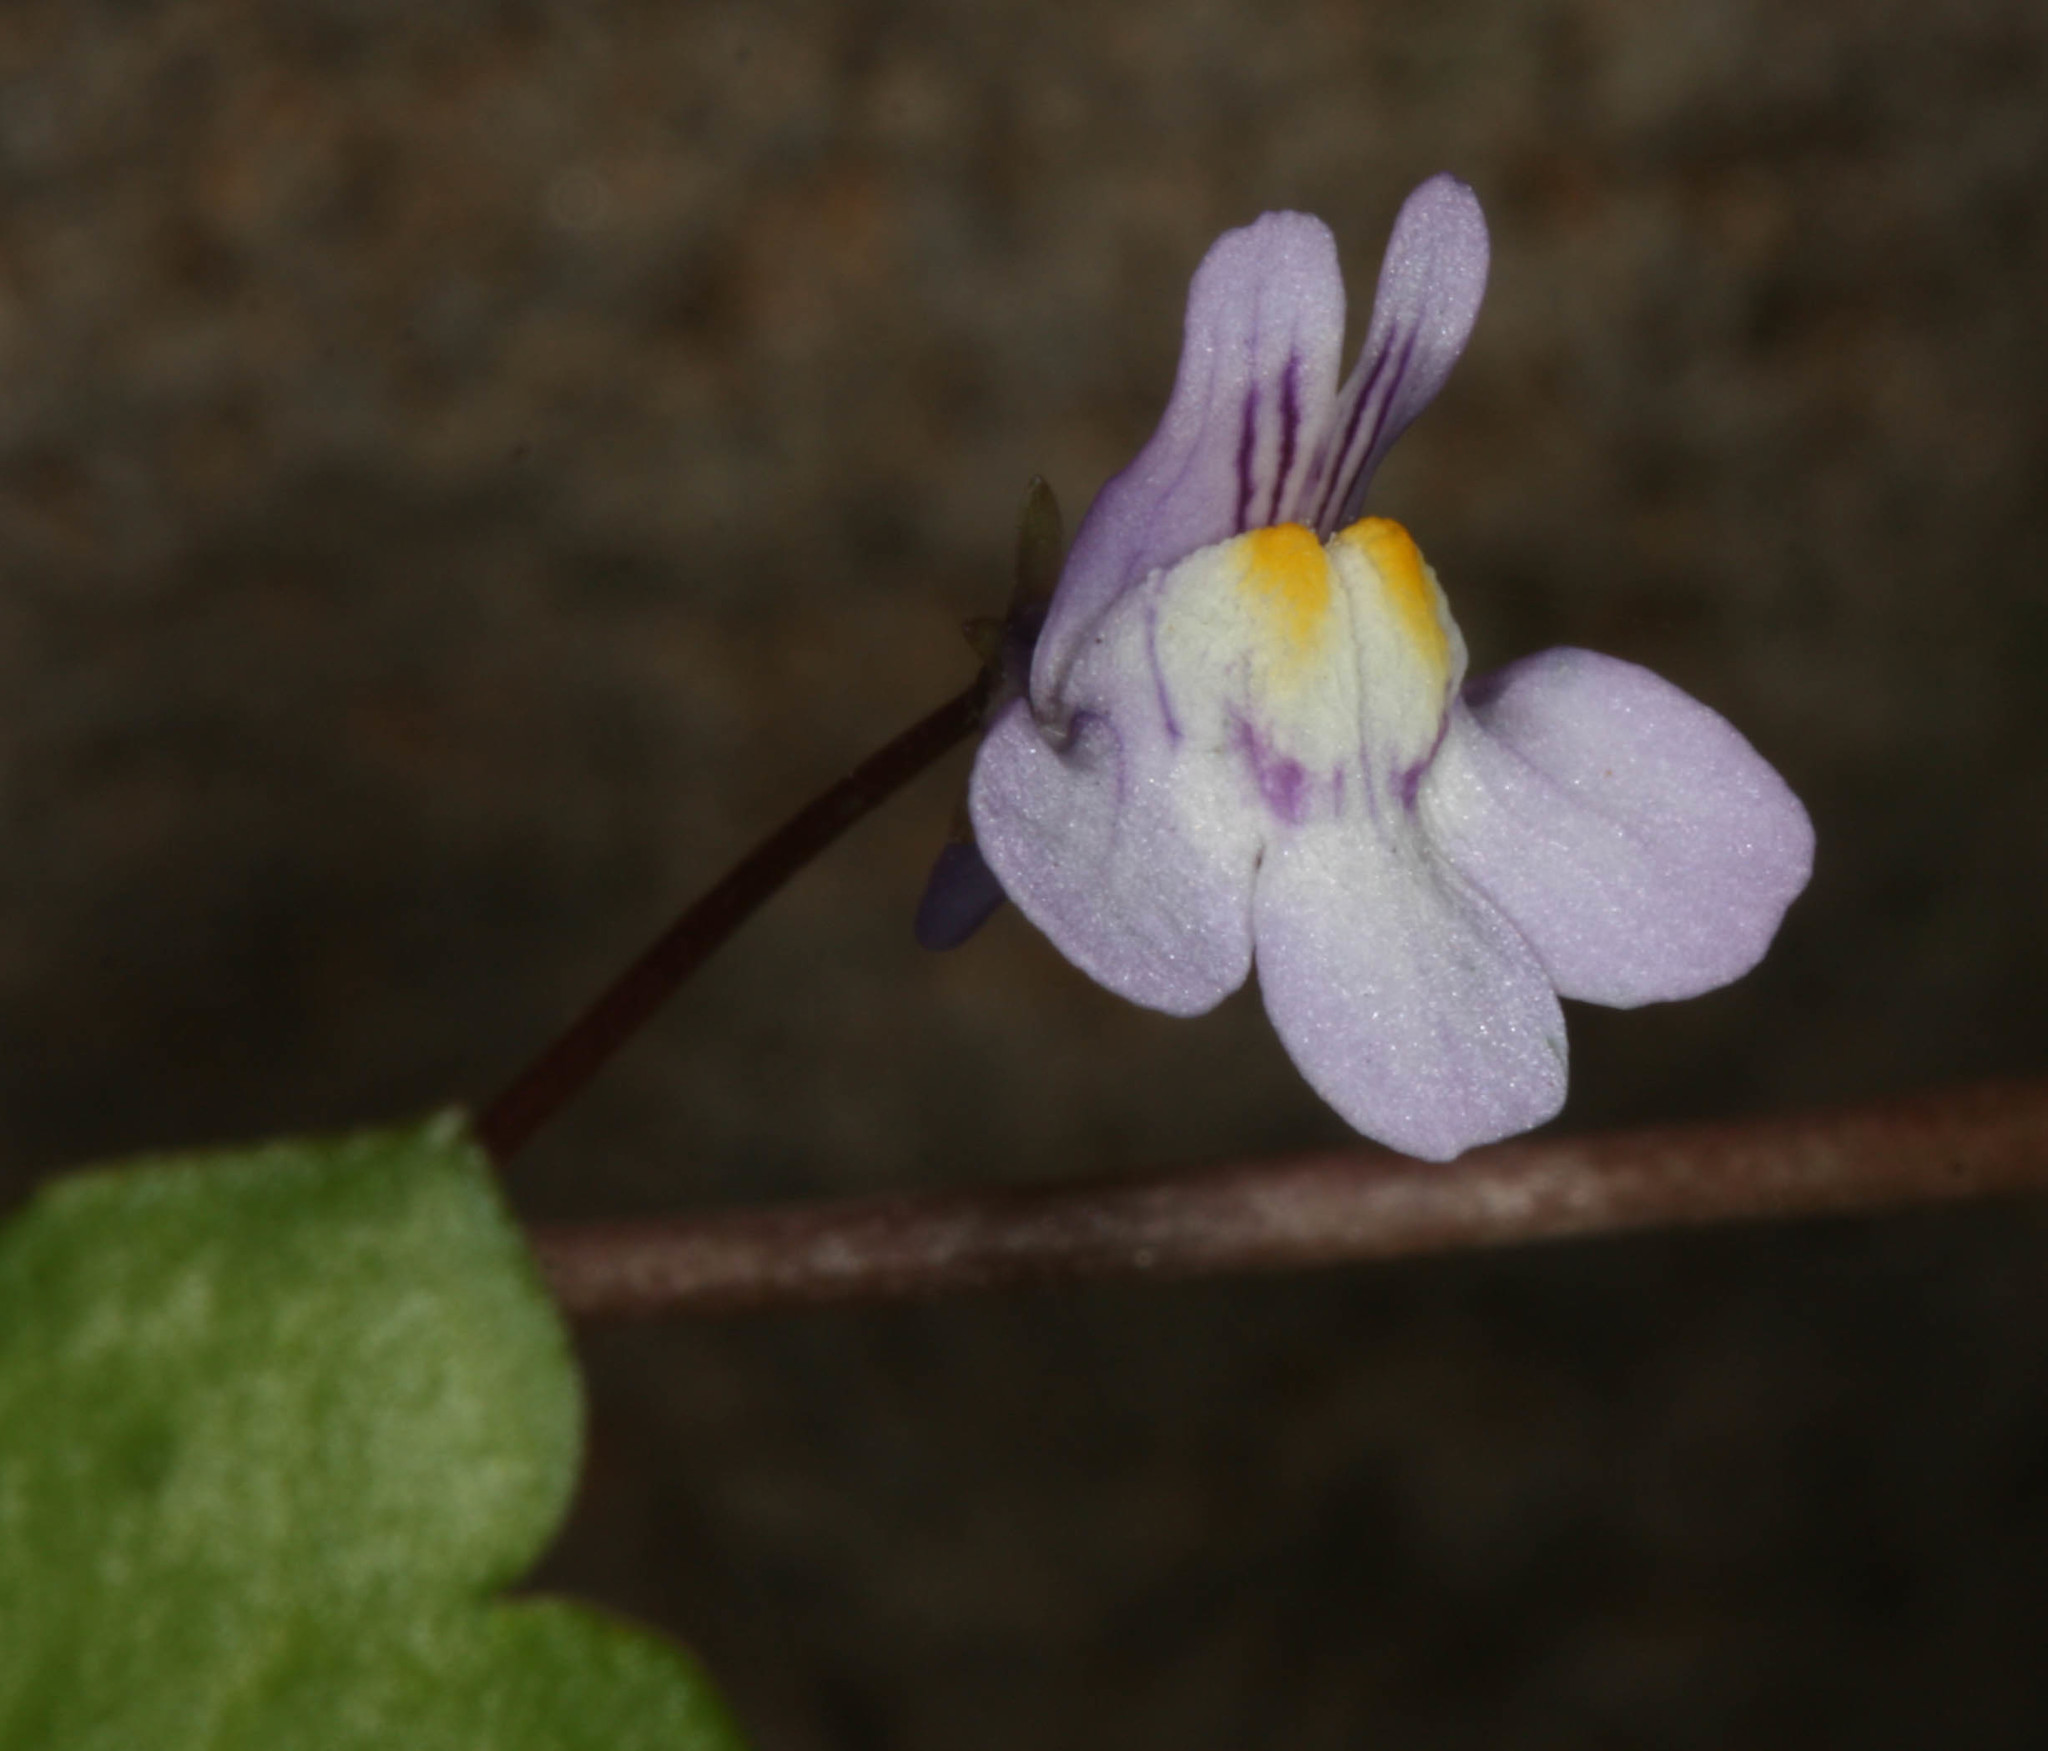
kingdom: Plantae
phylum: Tracheophyta
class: Magnoliopsida
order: Lamiales
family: Plantaginaceae
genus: Cymbalaria
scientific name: Cymbalaria muralis
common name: Ivy-leaved toadflax
